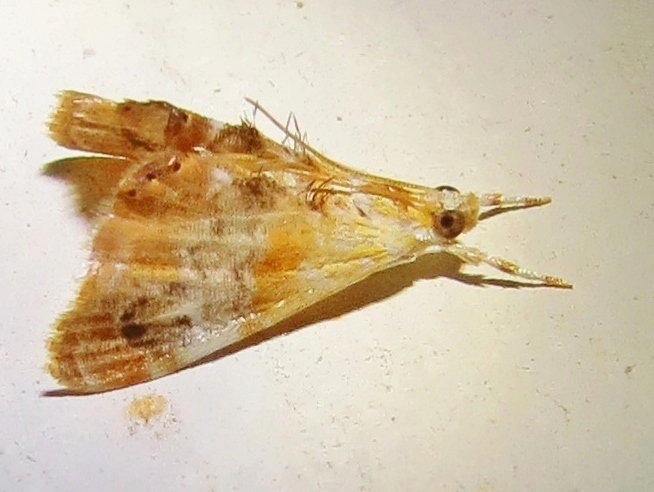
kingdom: Animalia
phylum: Arthropoda
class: Insecta
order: Lepidoptera
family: Crambidae
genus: Dicymolomia
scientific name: Dicymolomia julianalis
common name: Julia's dicymolomia moth
